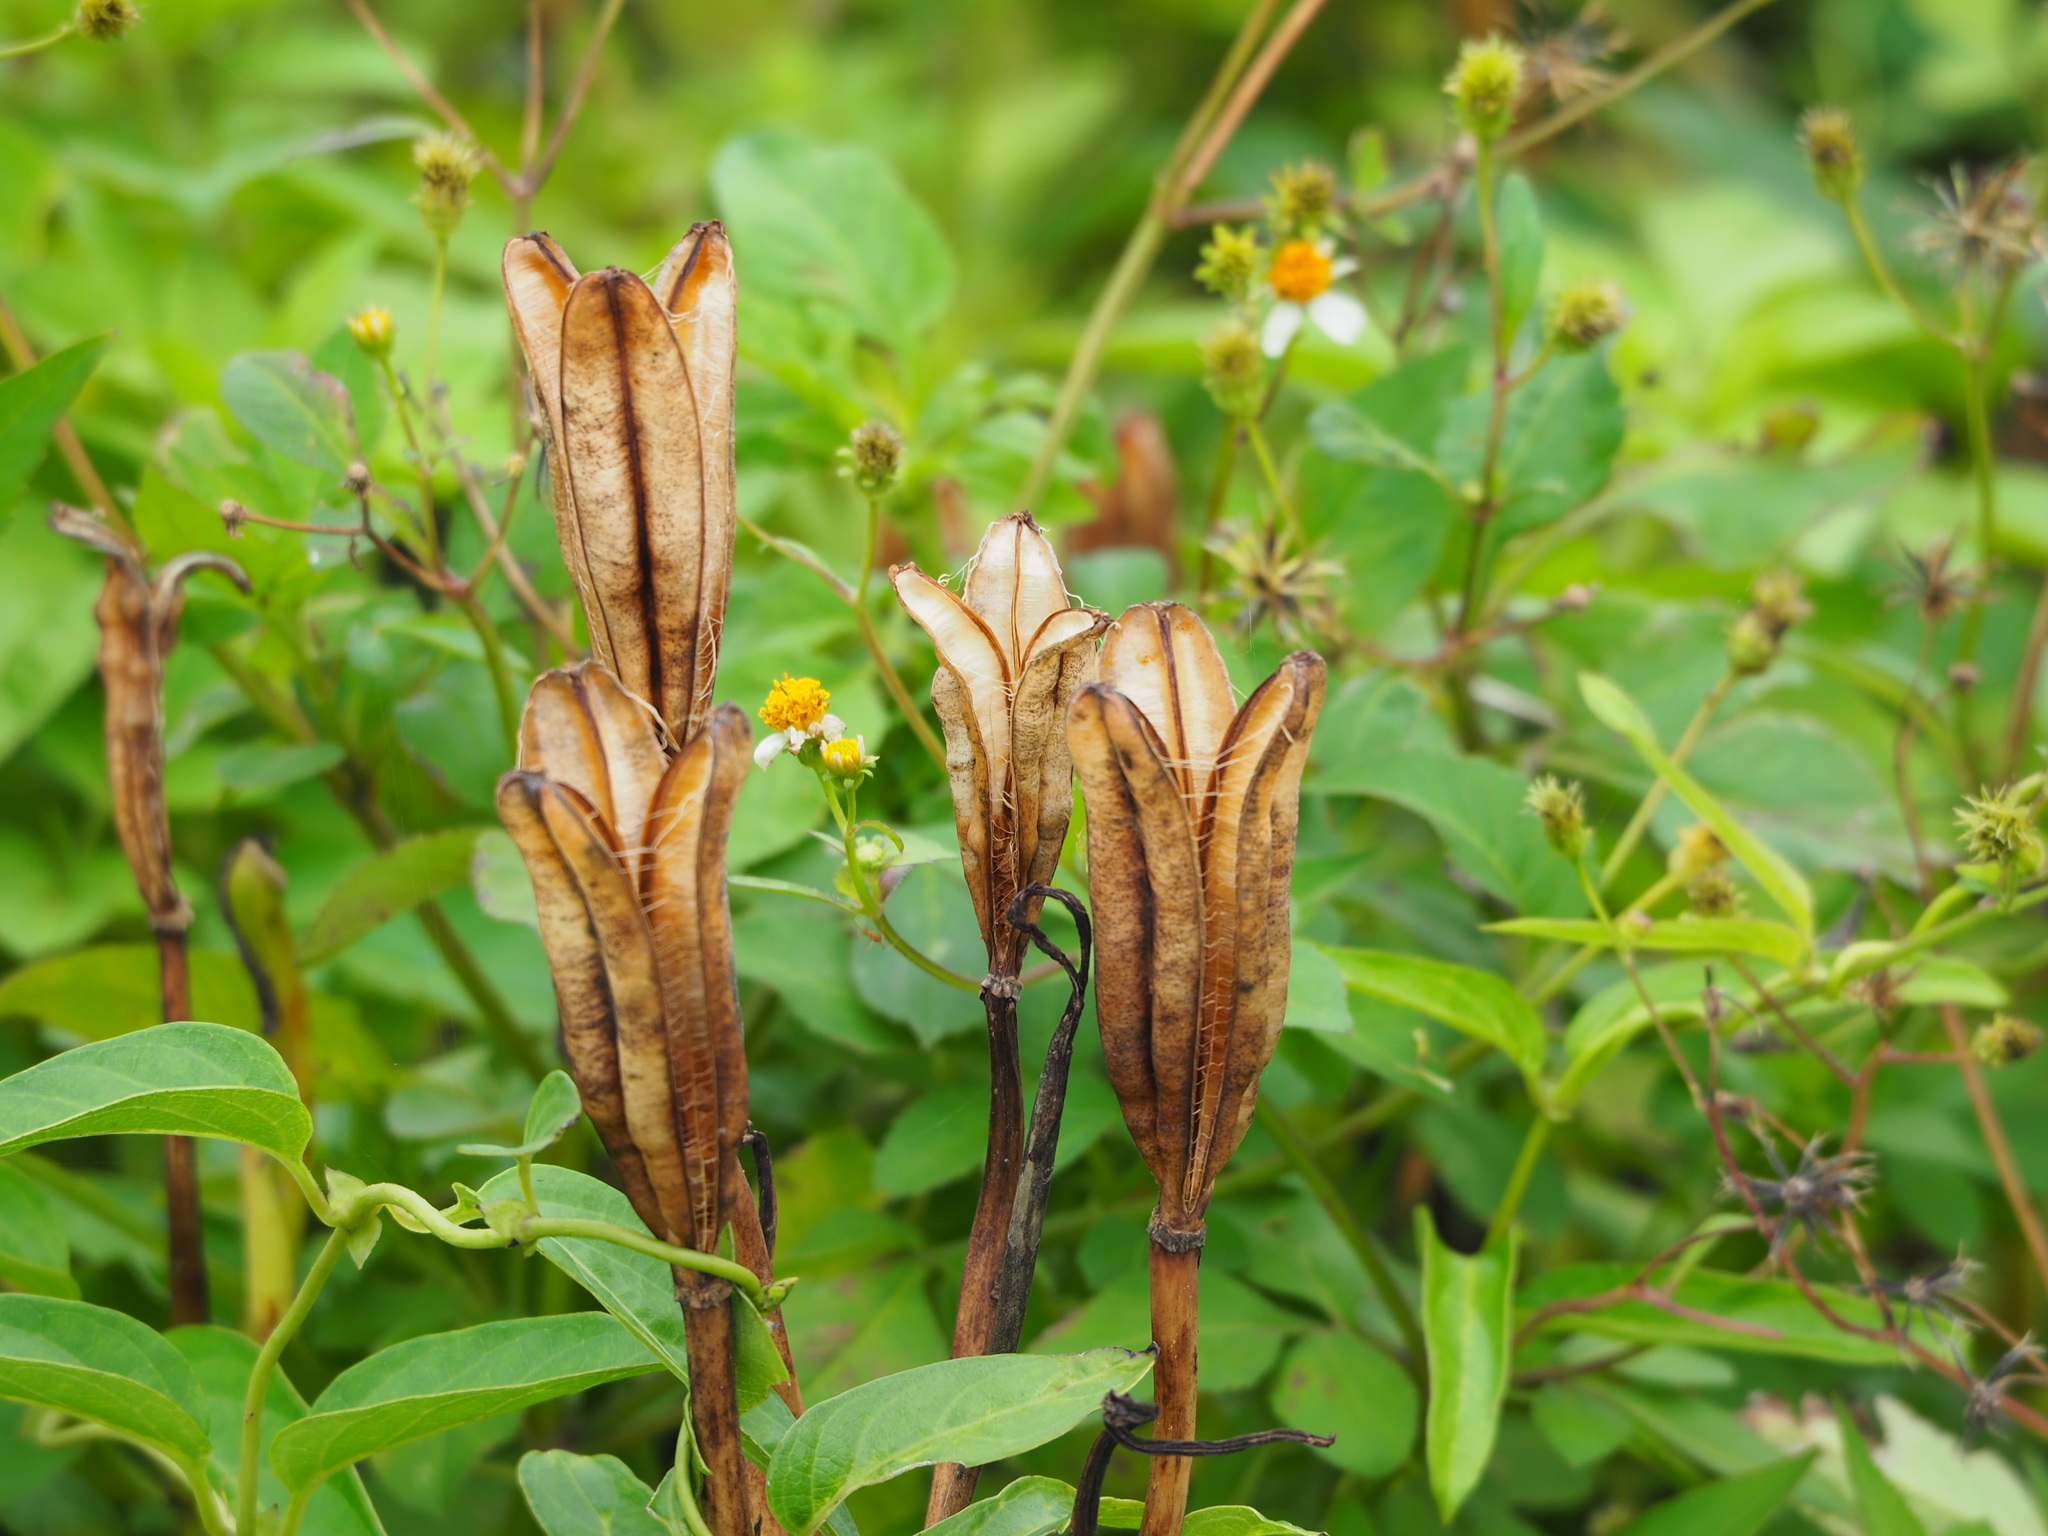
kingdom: Plantae
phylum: Tracheophyta
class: Liliopsida
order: Liliales
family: Liliaceae
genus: Lilium
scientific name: Lilium longiflorum
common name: Easter lily
